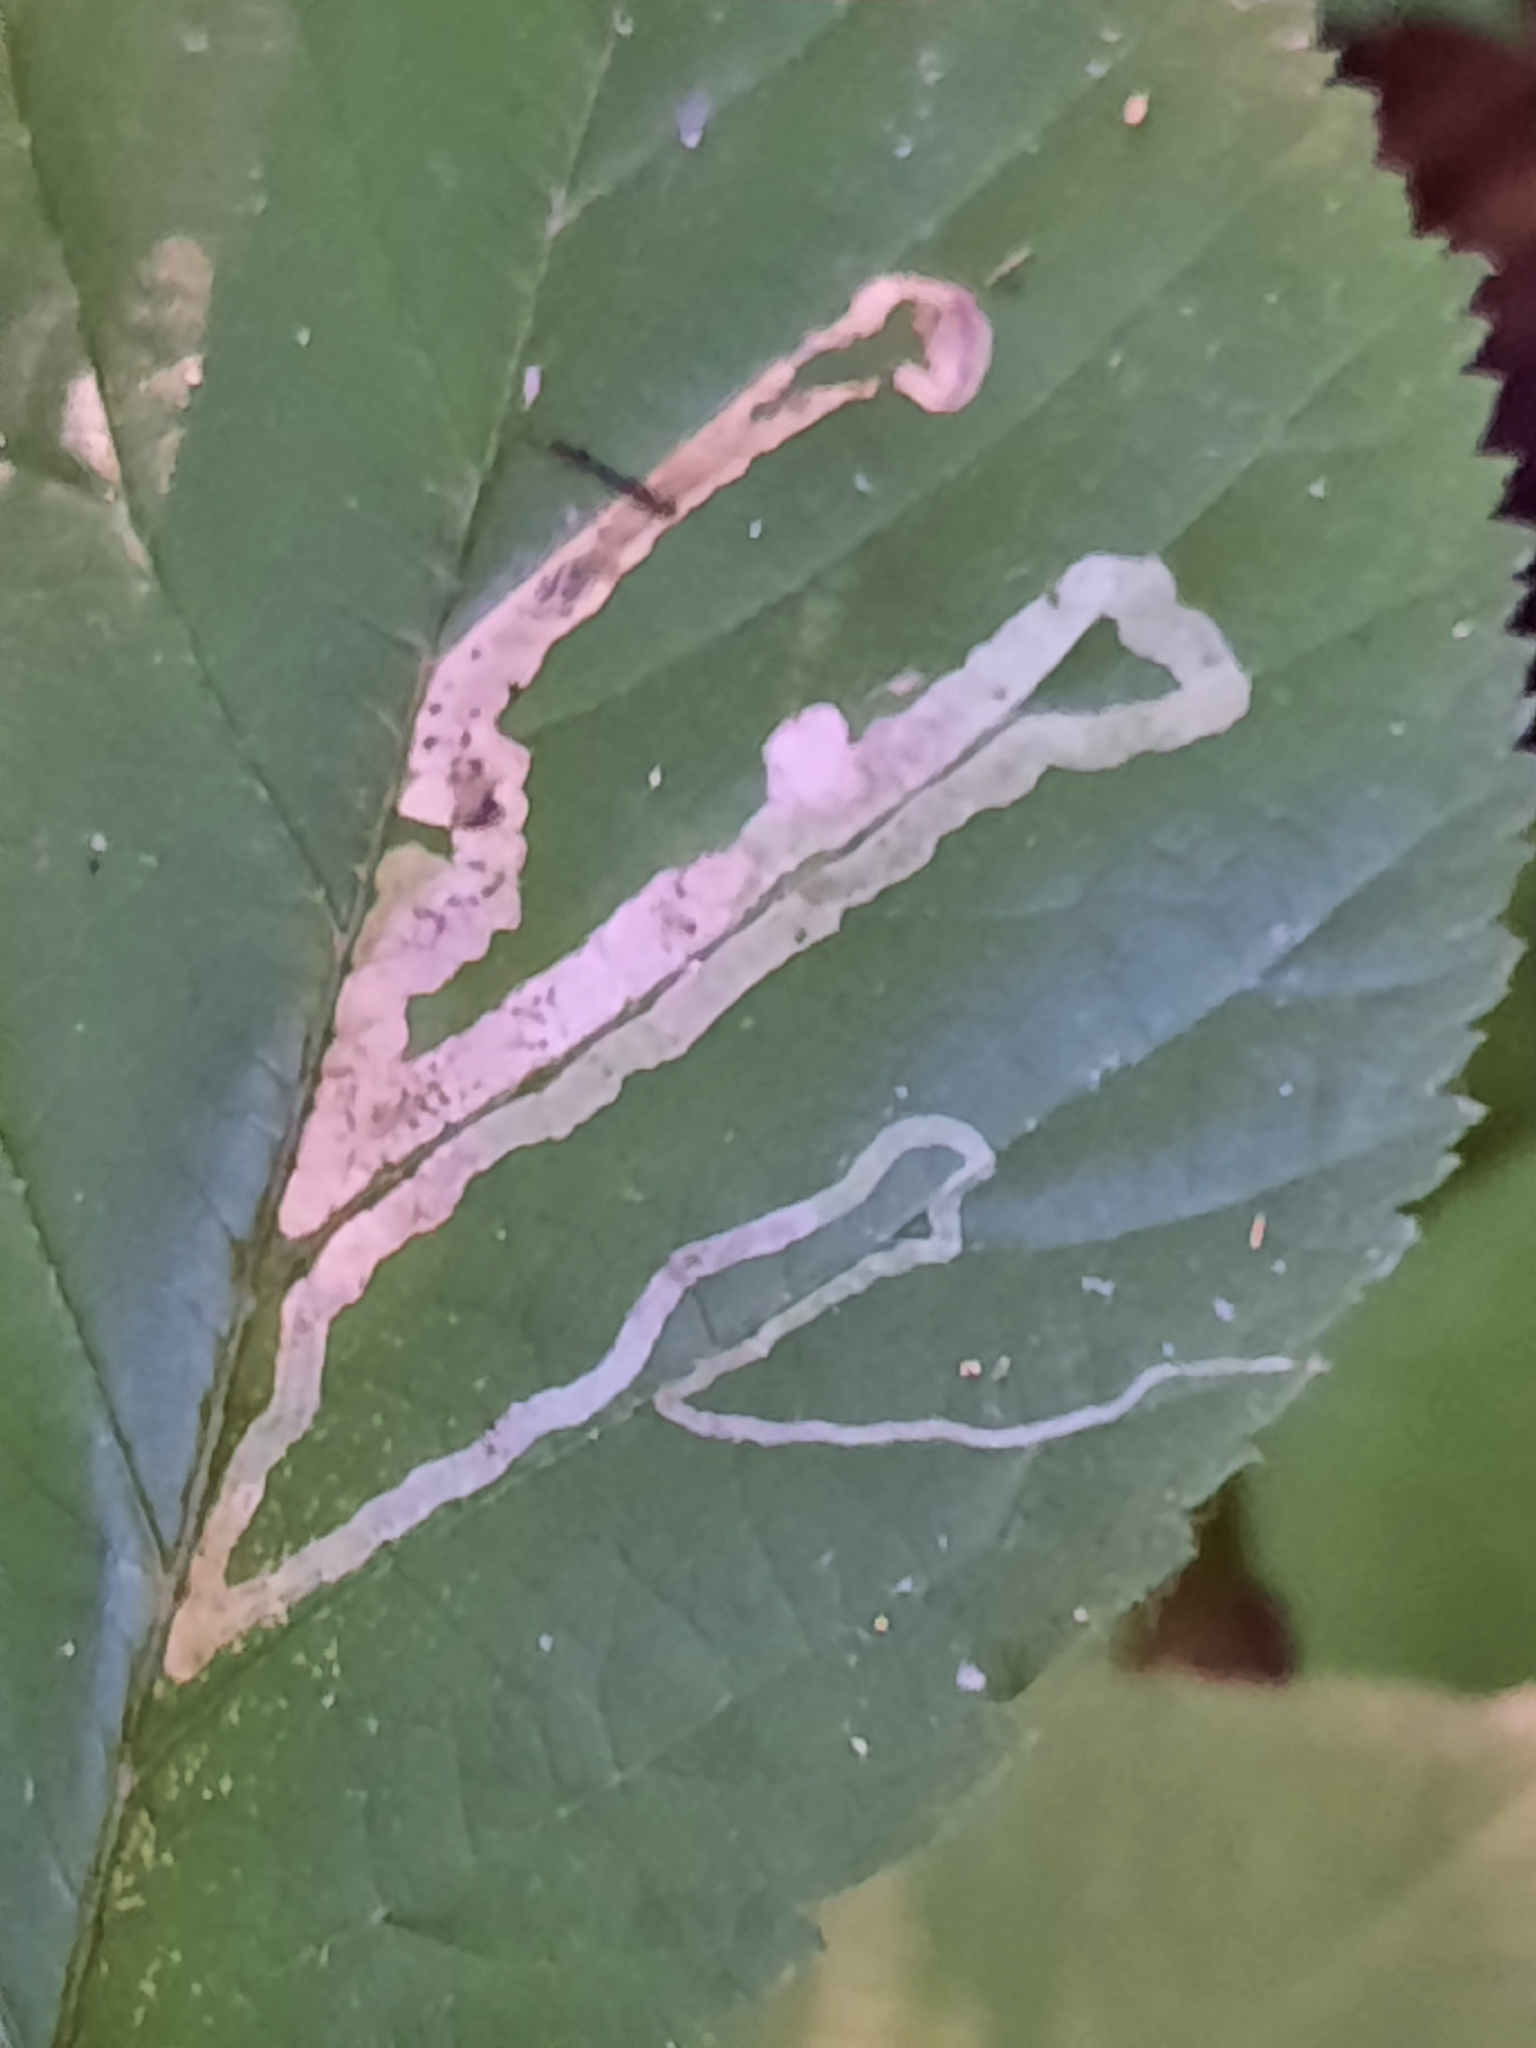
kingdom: Animalia
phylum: Arthropoda
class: Insecta
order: Diptera
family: Agromyzidae
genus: Agromyza
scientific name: Agromyza vockerothi
